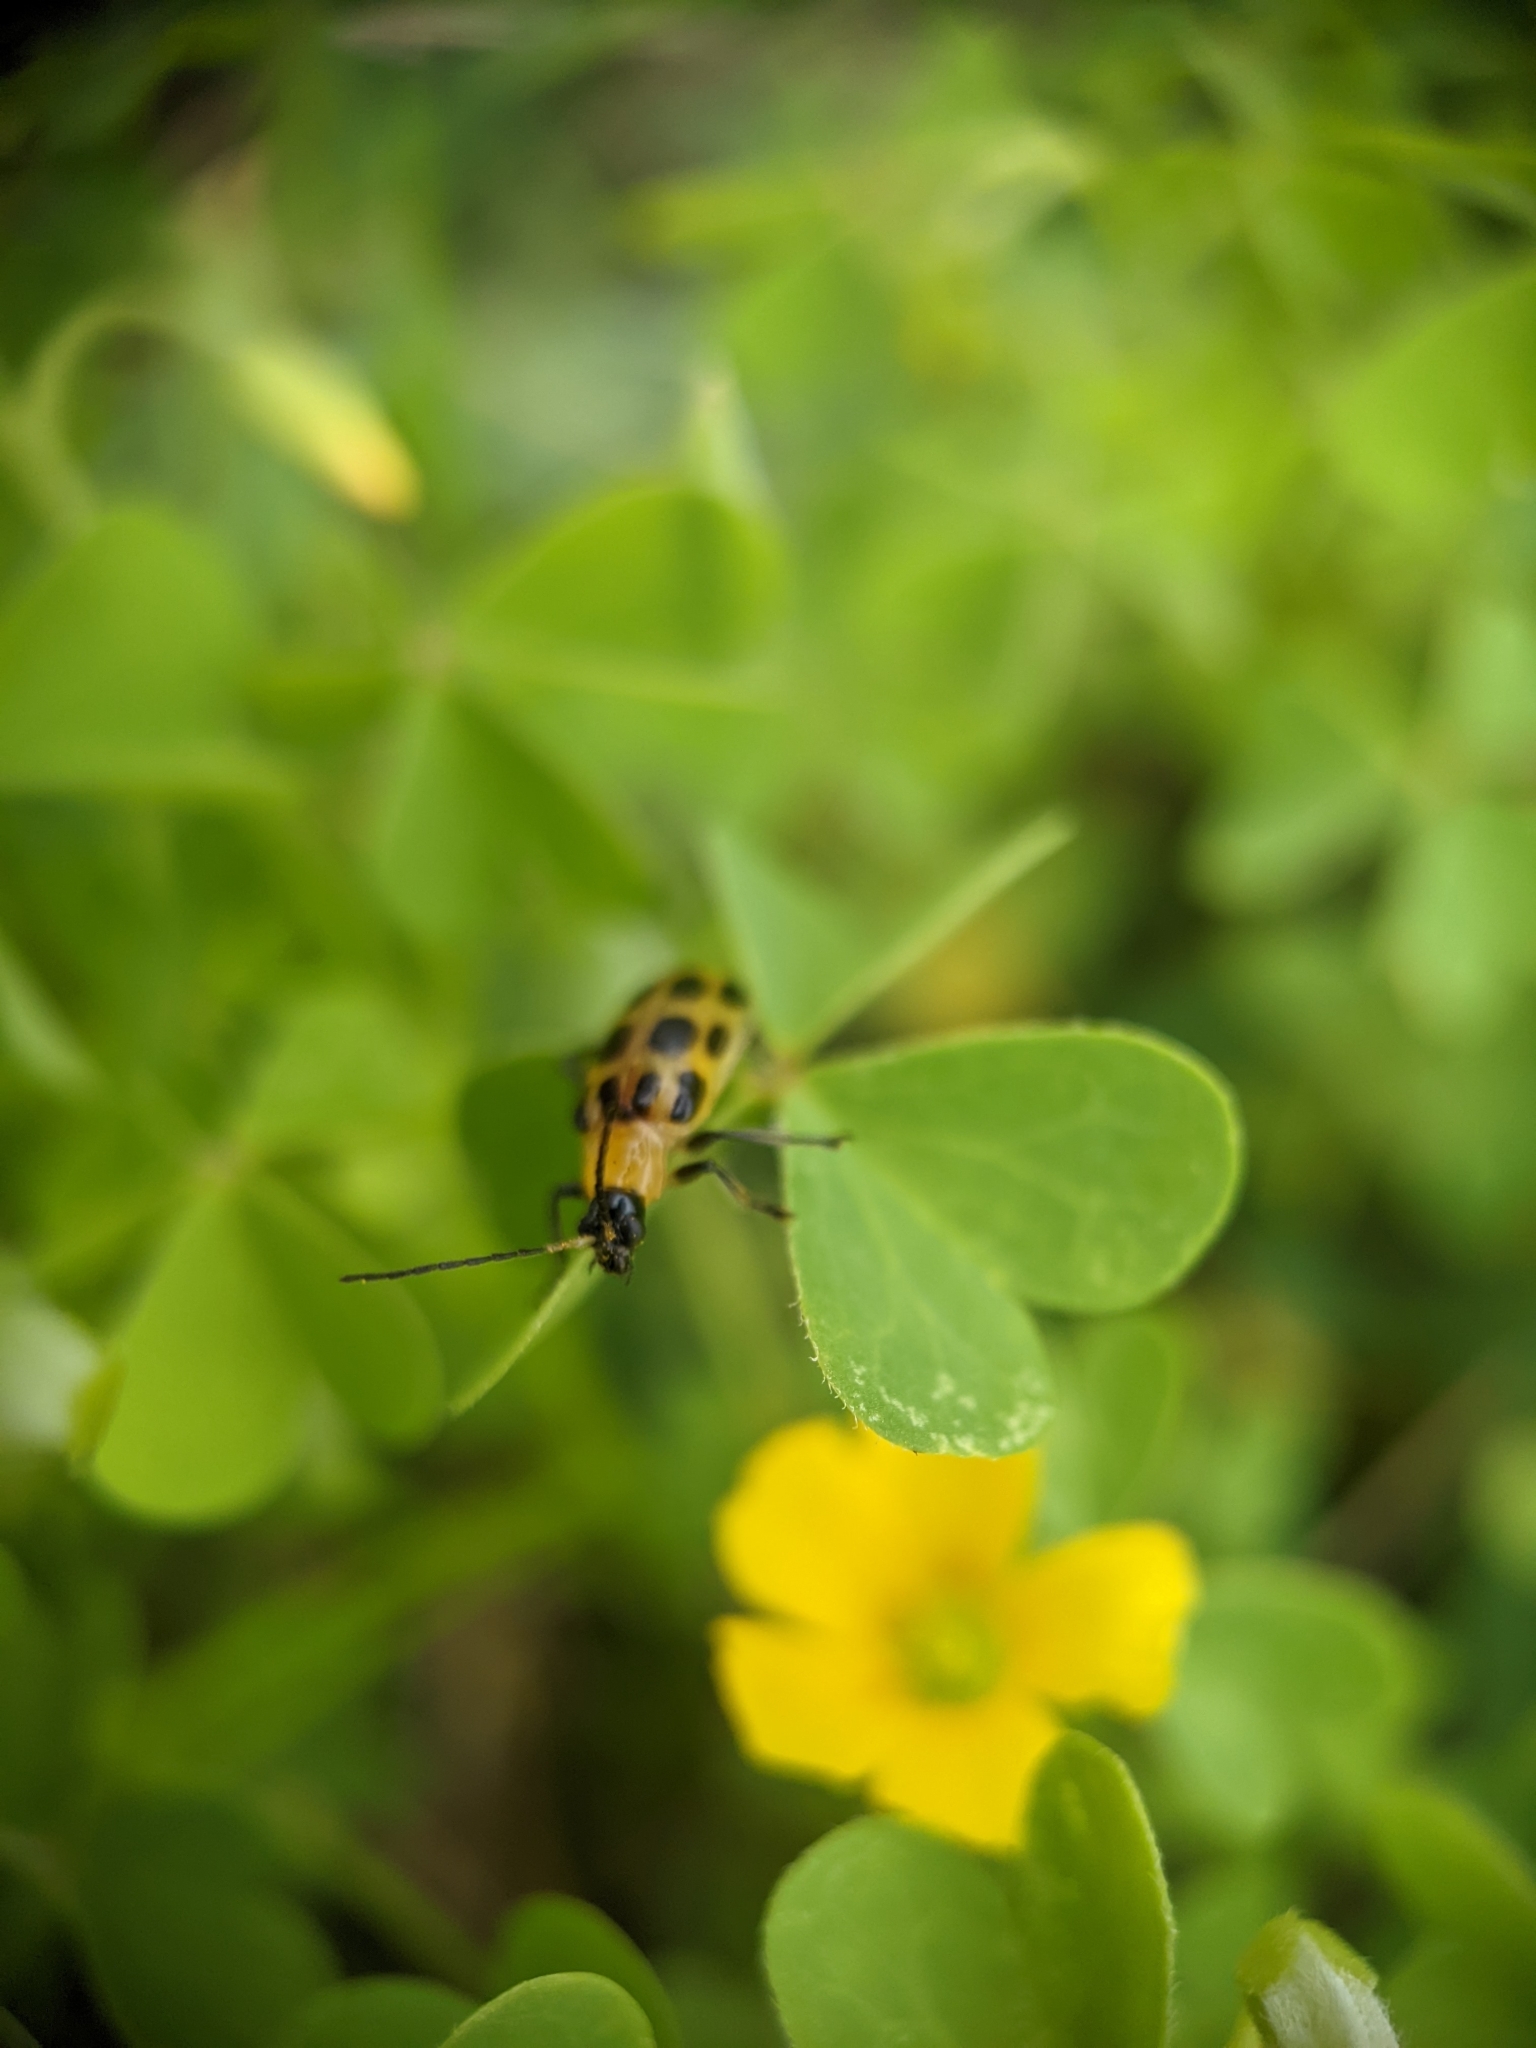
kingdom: Animalia
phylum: Arthropoda
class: Insecta
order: Coleoptera
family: Chrysomelidae
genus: Diabrotica
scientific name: Diabrotica undecimpunctata
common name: Spotted cucumber beetle
